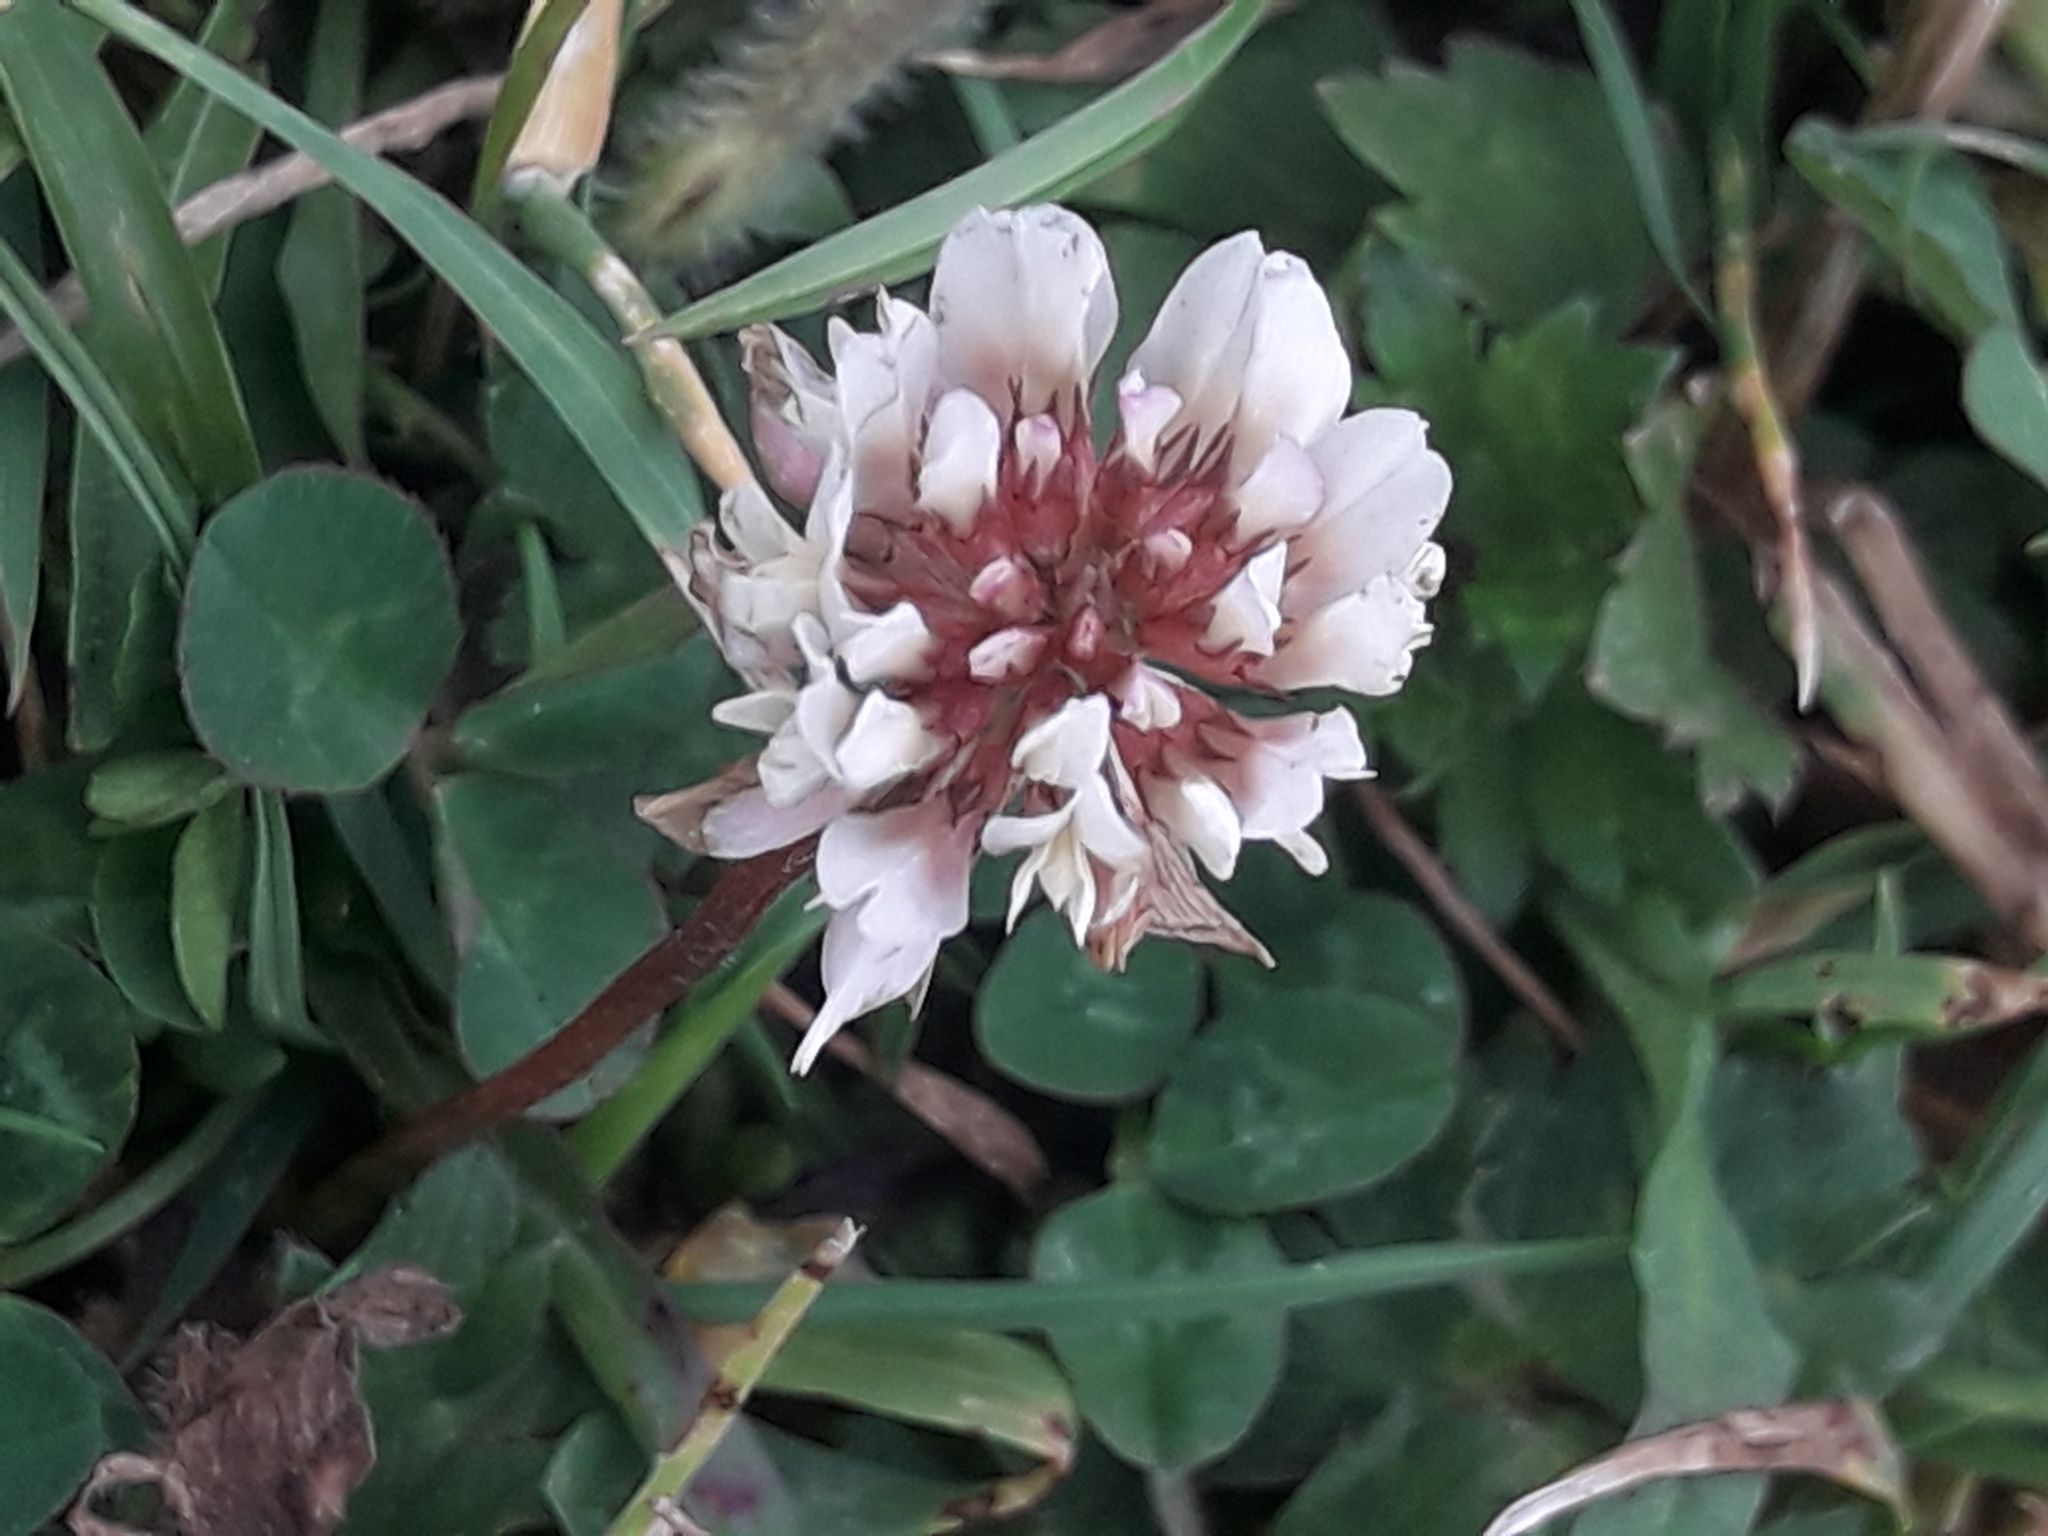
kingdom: Plantae
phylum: Tracheophyta
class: Magnoliopsida
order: Fabales
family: Fabaceae
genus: Trifolium
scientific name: Trifolium repens
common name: White clover
